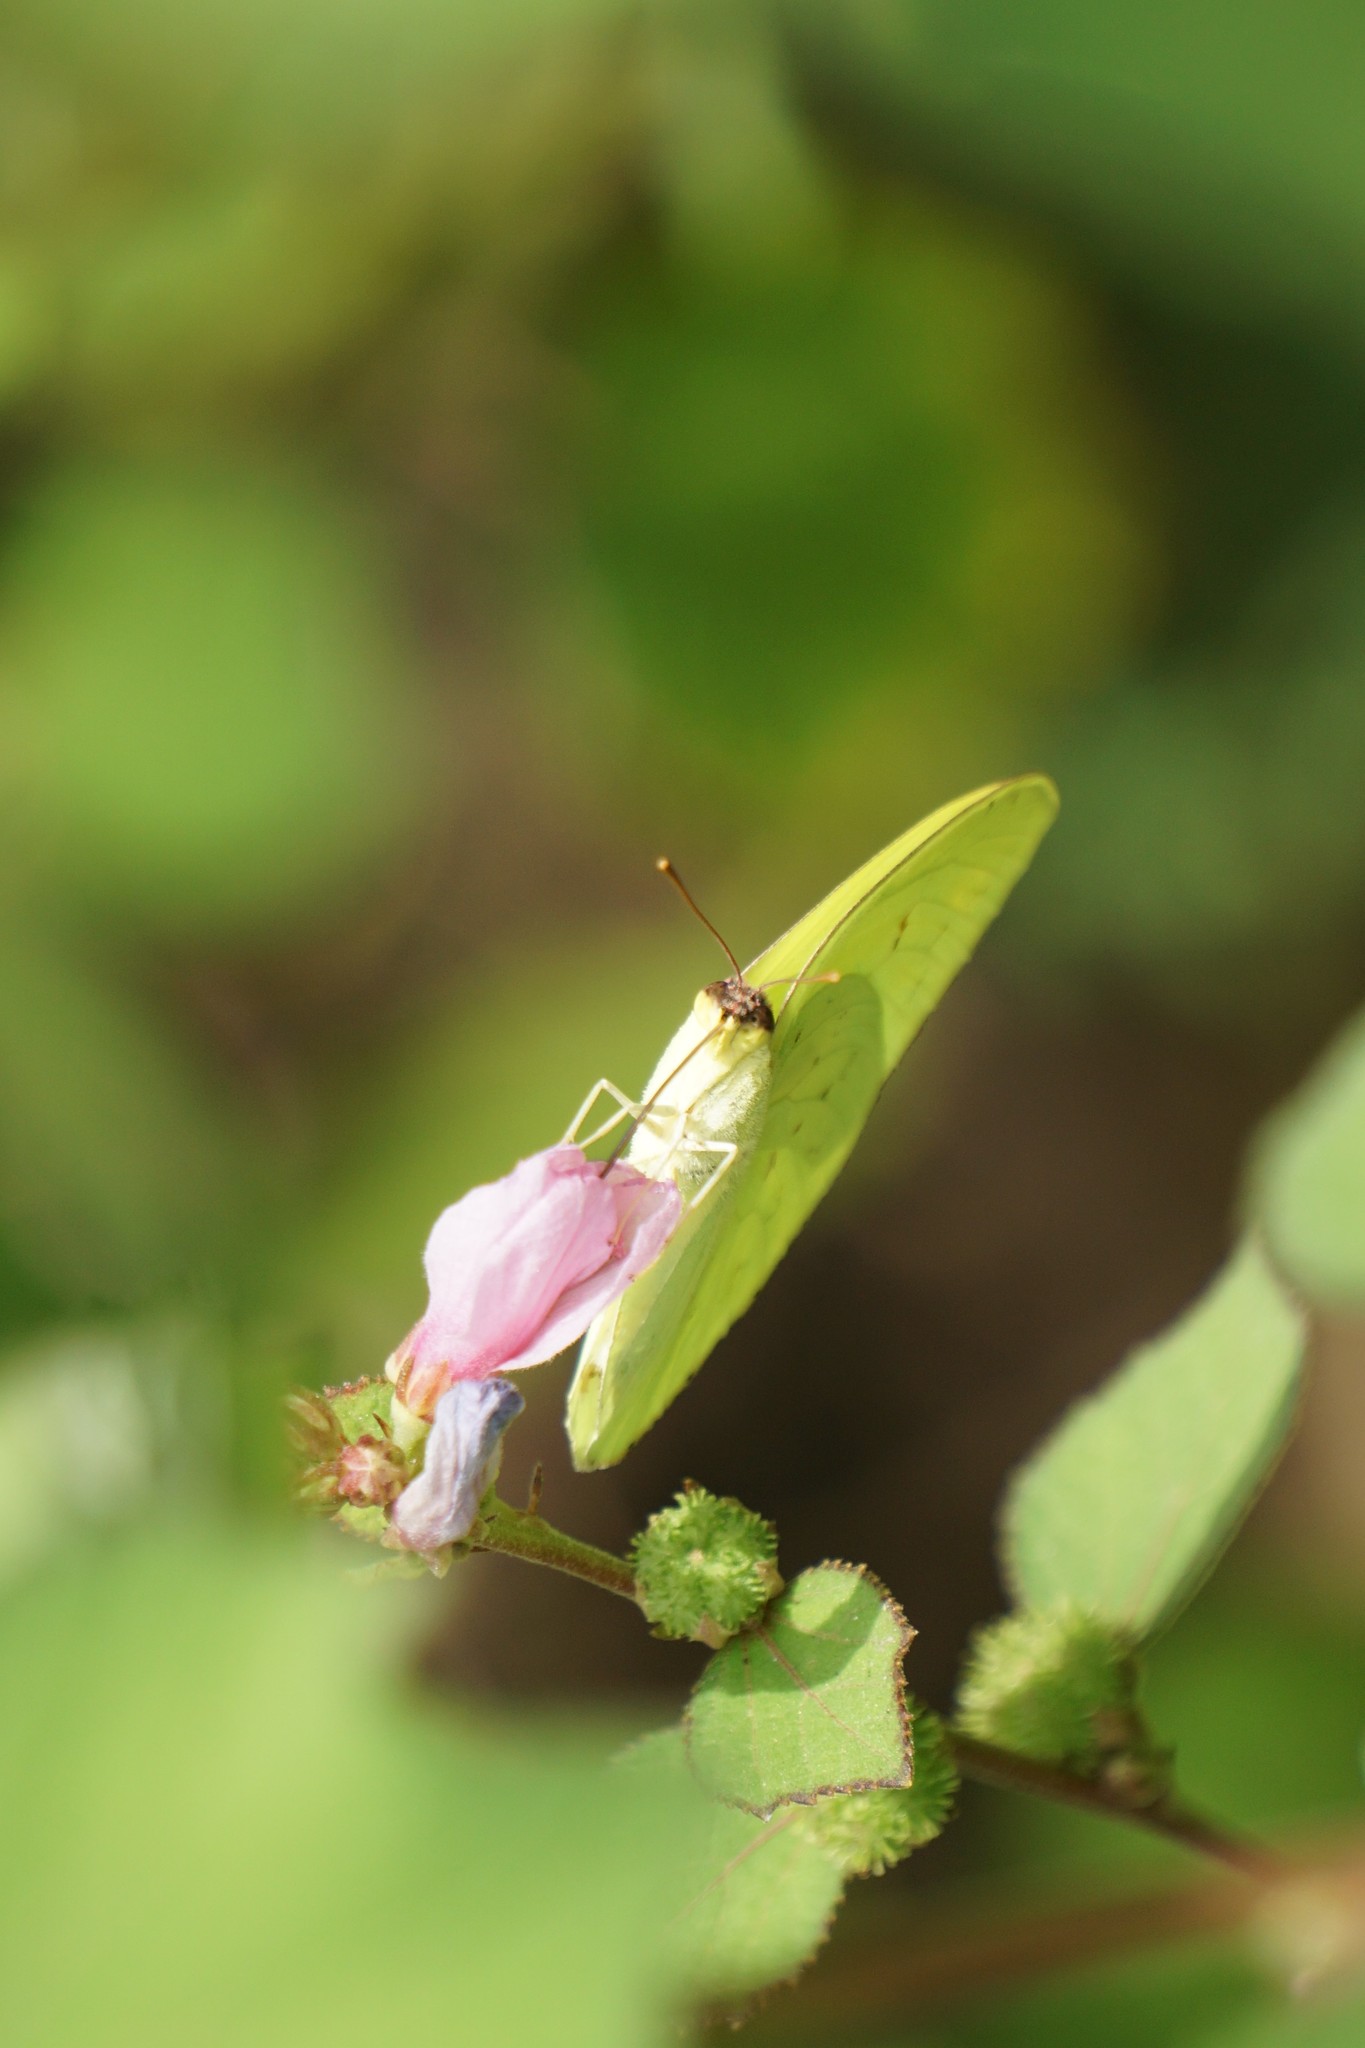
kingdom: Animalia
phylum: Arthropoda
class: Insecta
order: Lepidoptera
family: Pieridae
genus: Phoebis
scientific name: Phoebis sennae
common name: Cloudless sulphur
